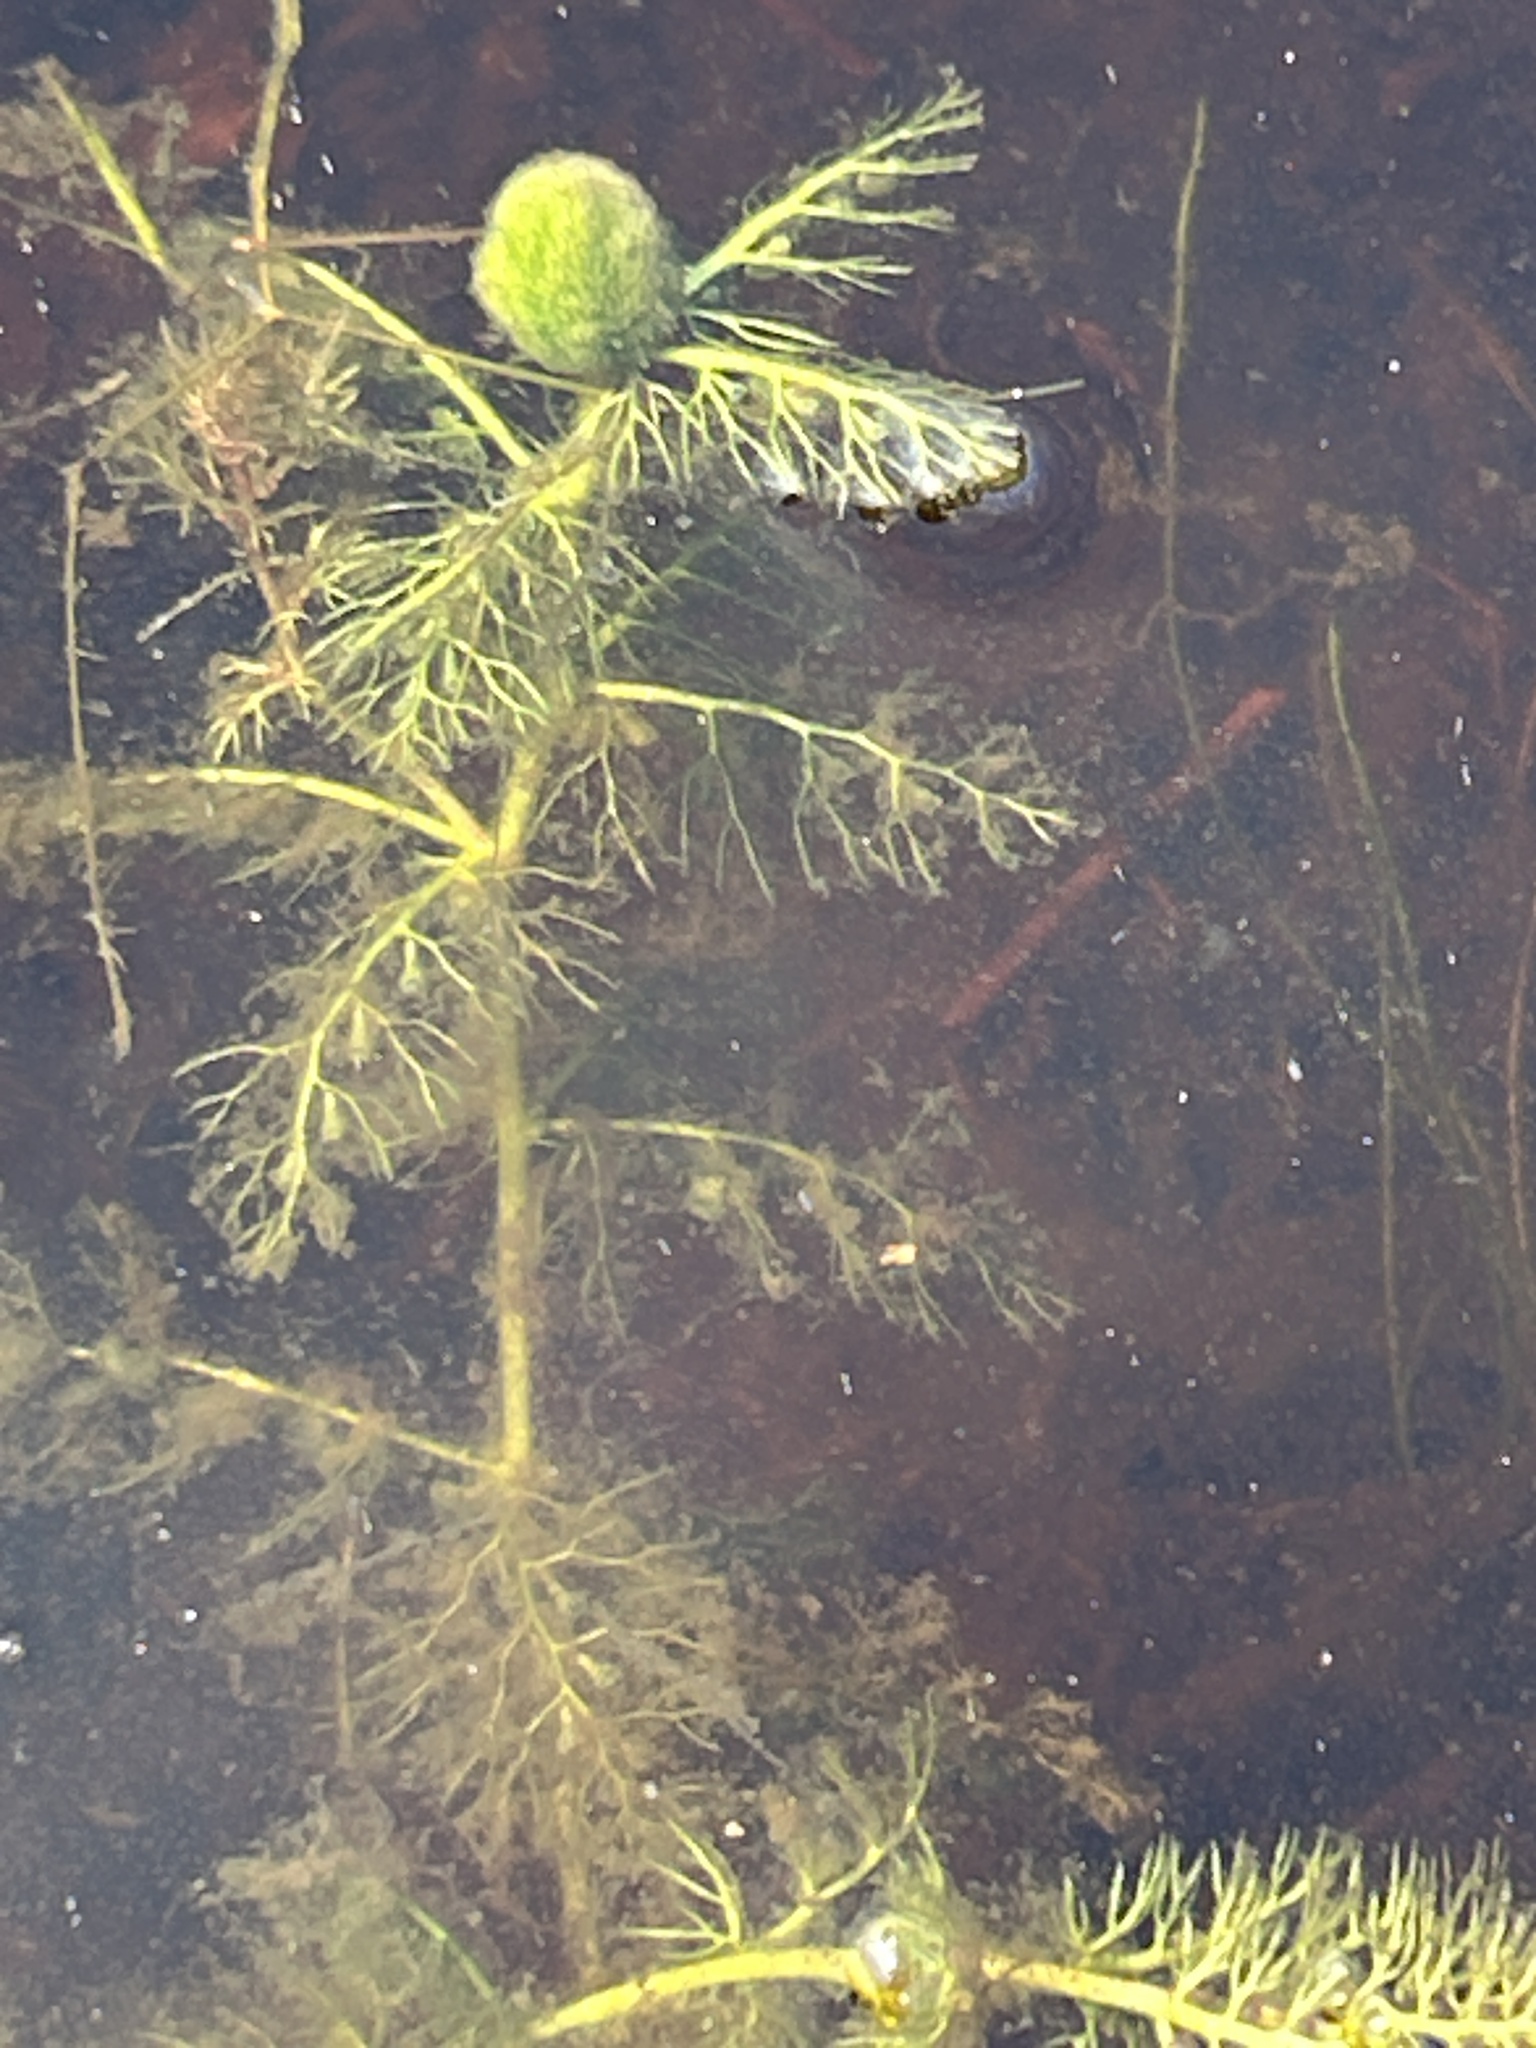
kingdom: Plantae
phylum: Tracheophyta
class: Magnoliopsida
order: Lamiales
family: Lentibulariaceae
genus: Utricularia
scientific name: Utricularia macrorhiza
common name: Common bladderwort
